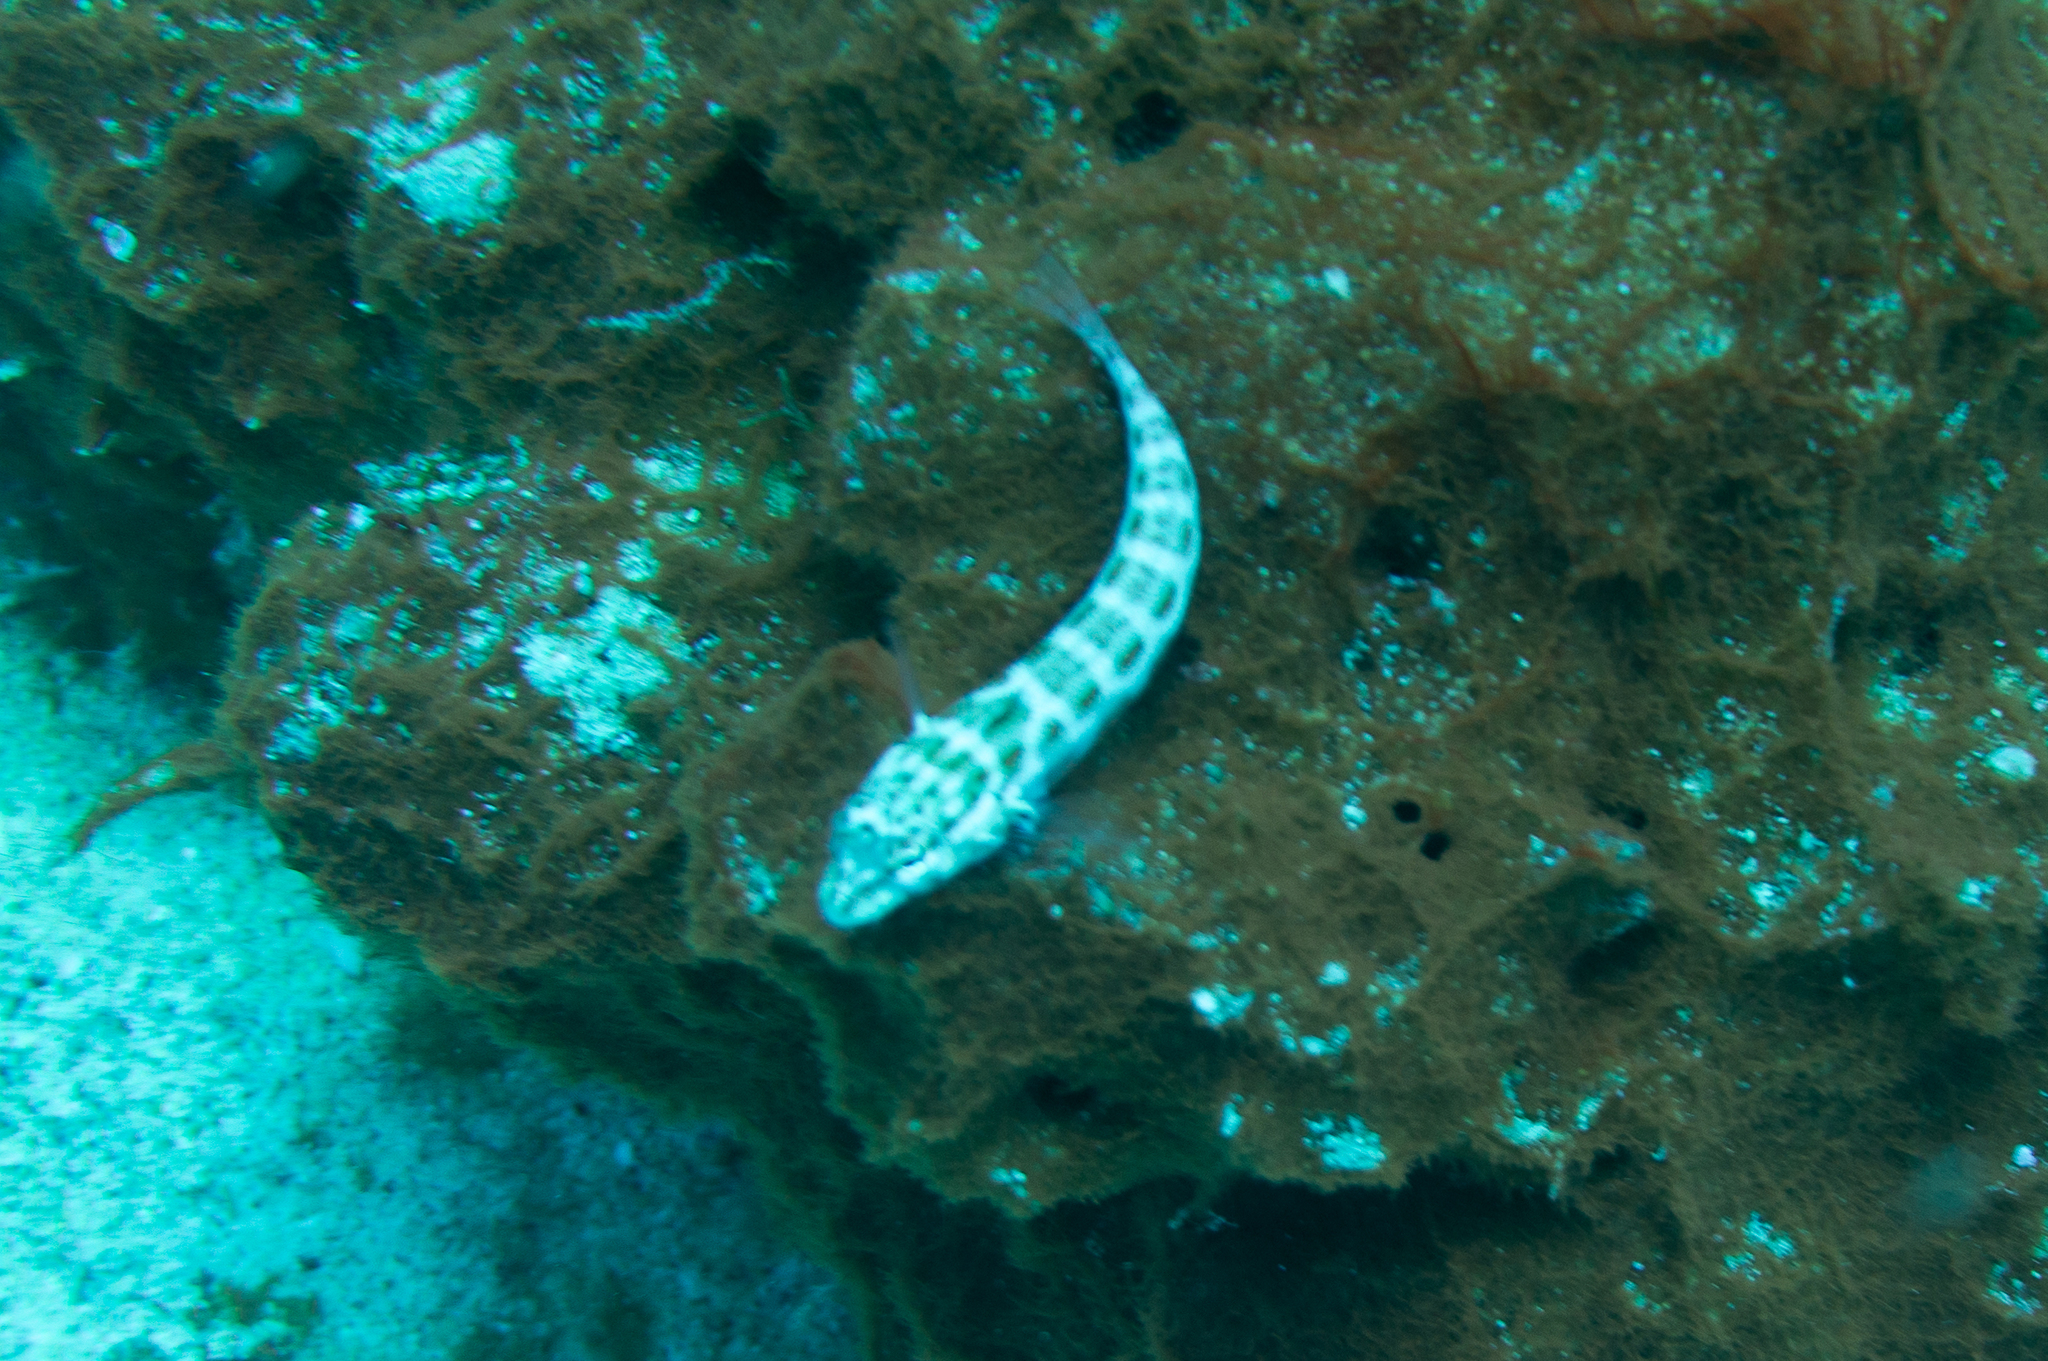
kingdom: Animalia
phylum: Chordata
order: Perciformes
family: Pinguipedidae
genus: Parapercis
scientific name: Parapercis schauinslandii
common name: Redspotted sandperch
